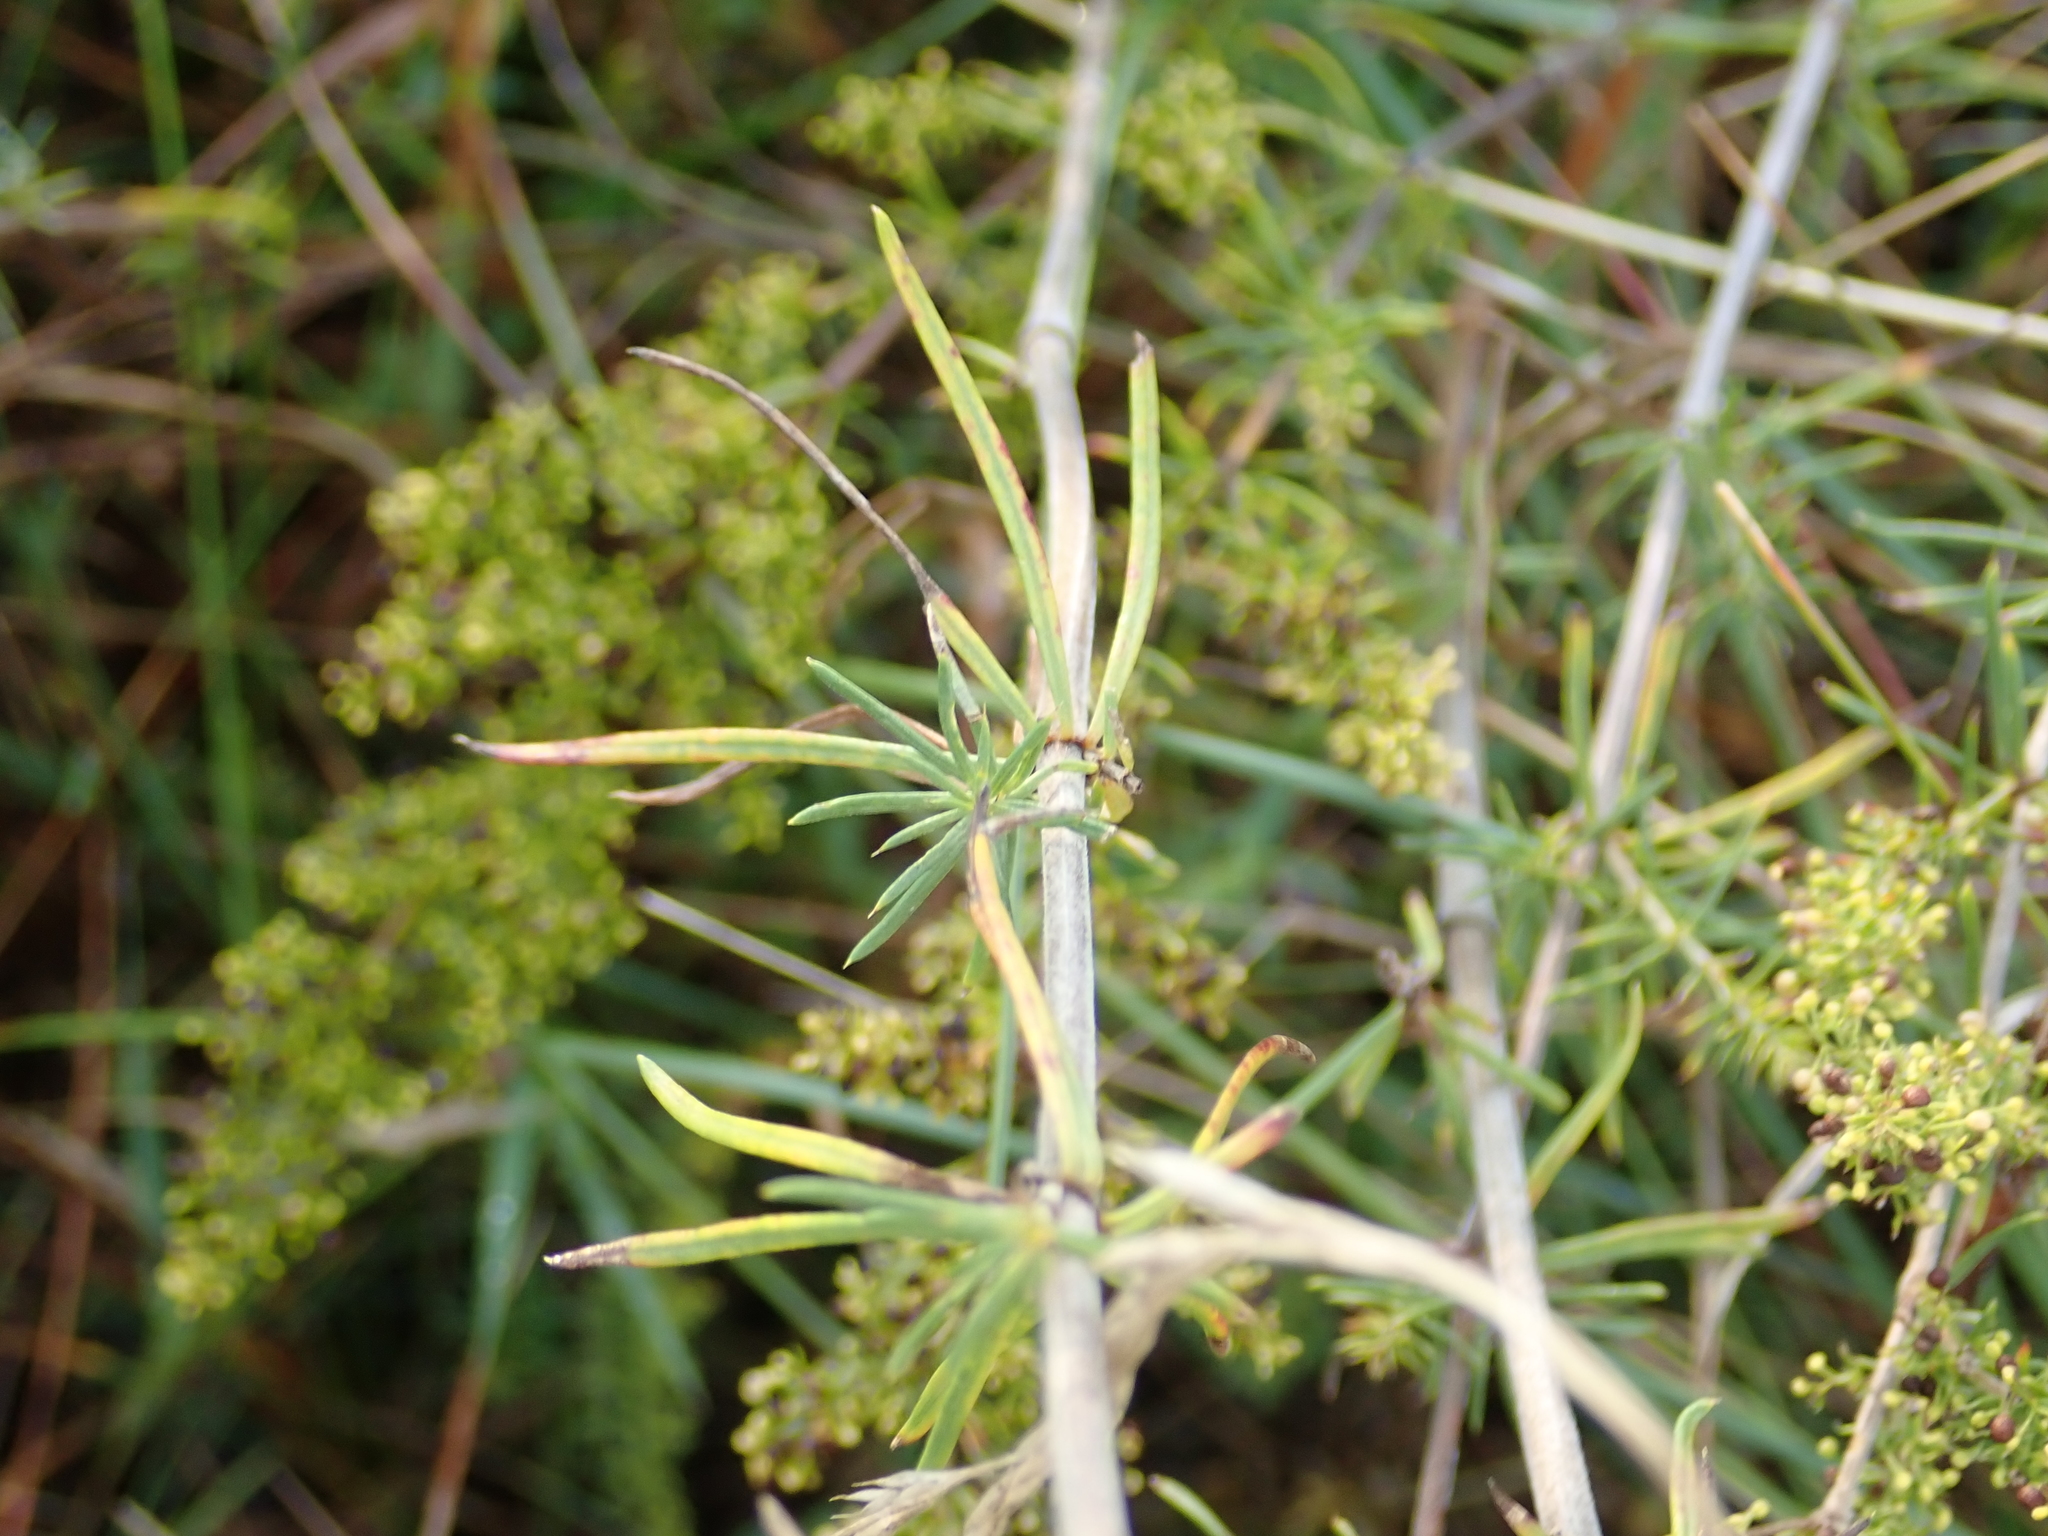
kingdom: Plantae
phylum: Tracheophyta
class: Magnoliopsida
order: Gentianales
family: Rubiaceae
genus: Galium
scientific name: Galium verum
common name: Lady's bedstraw
